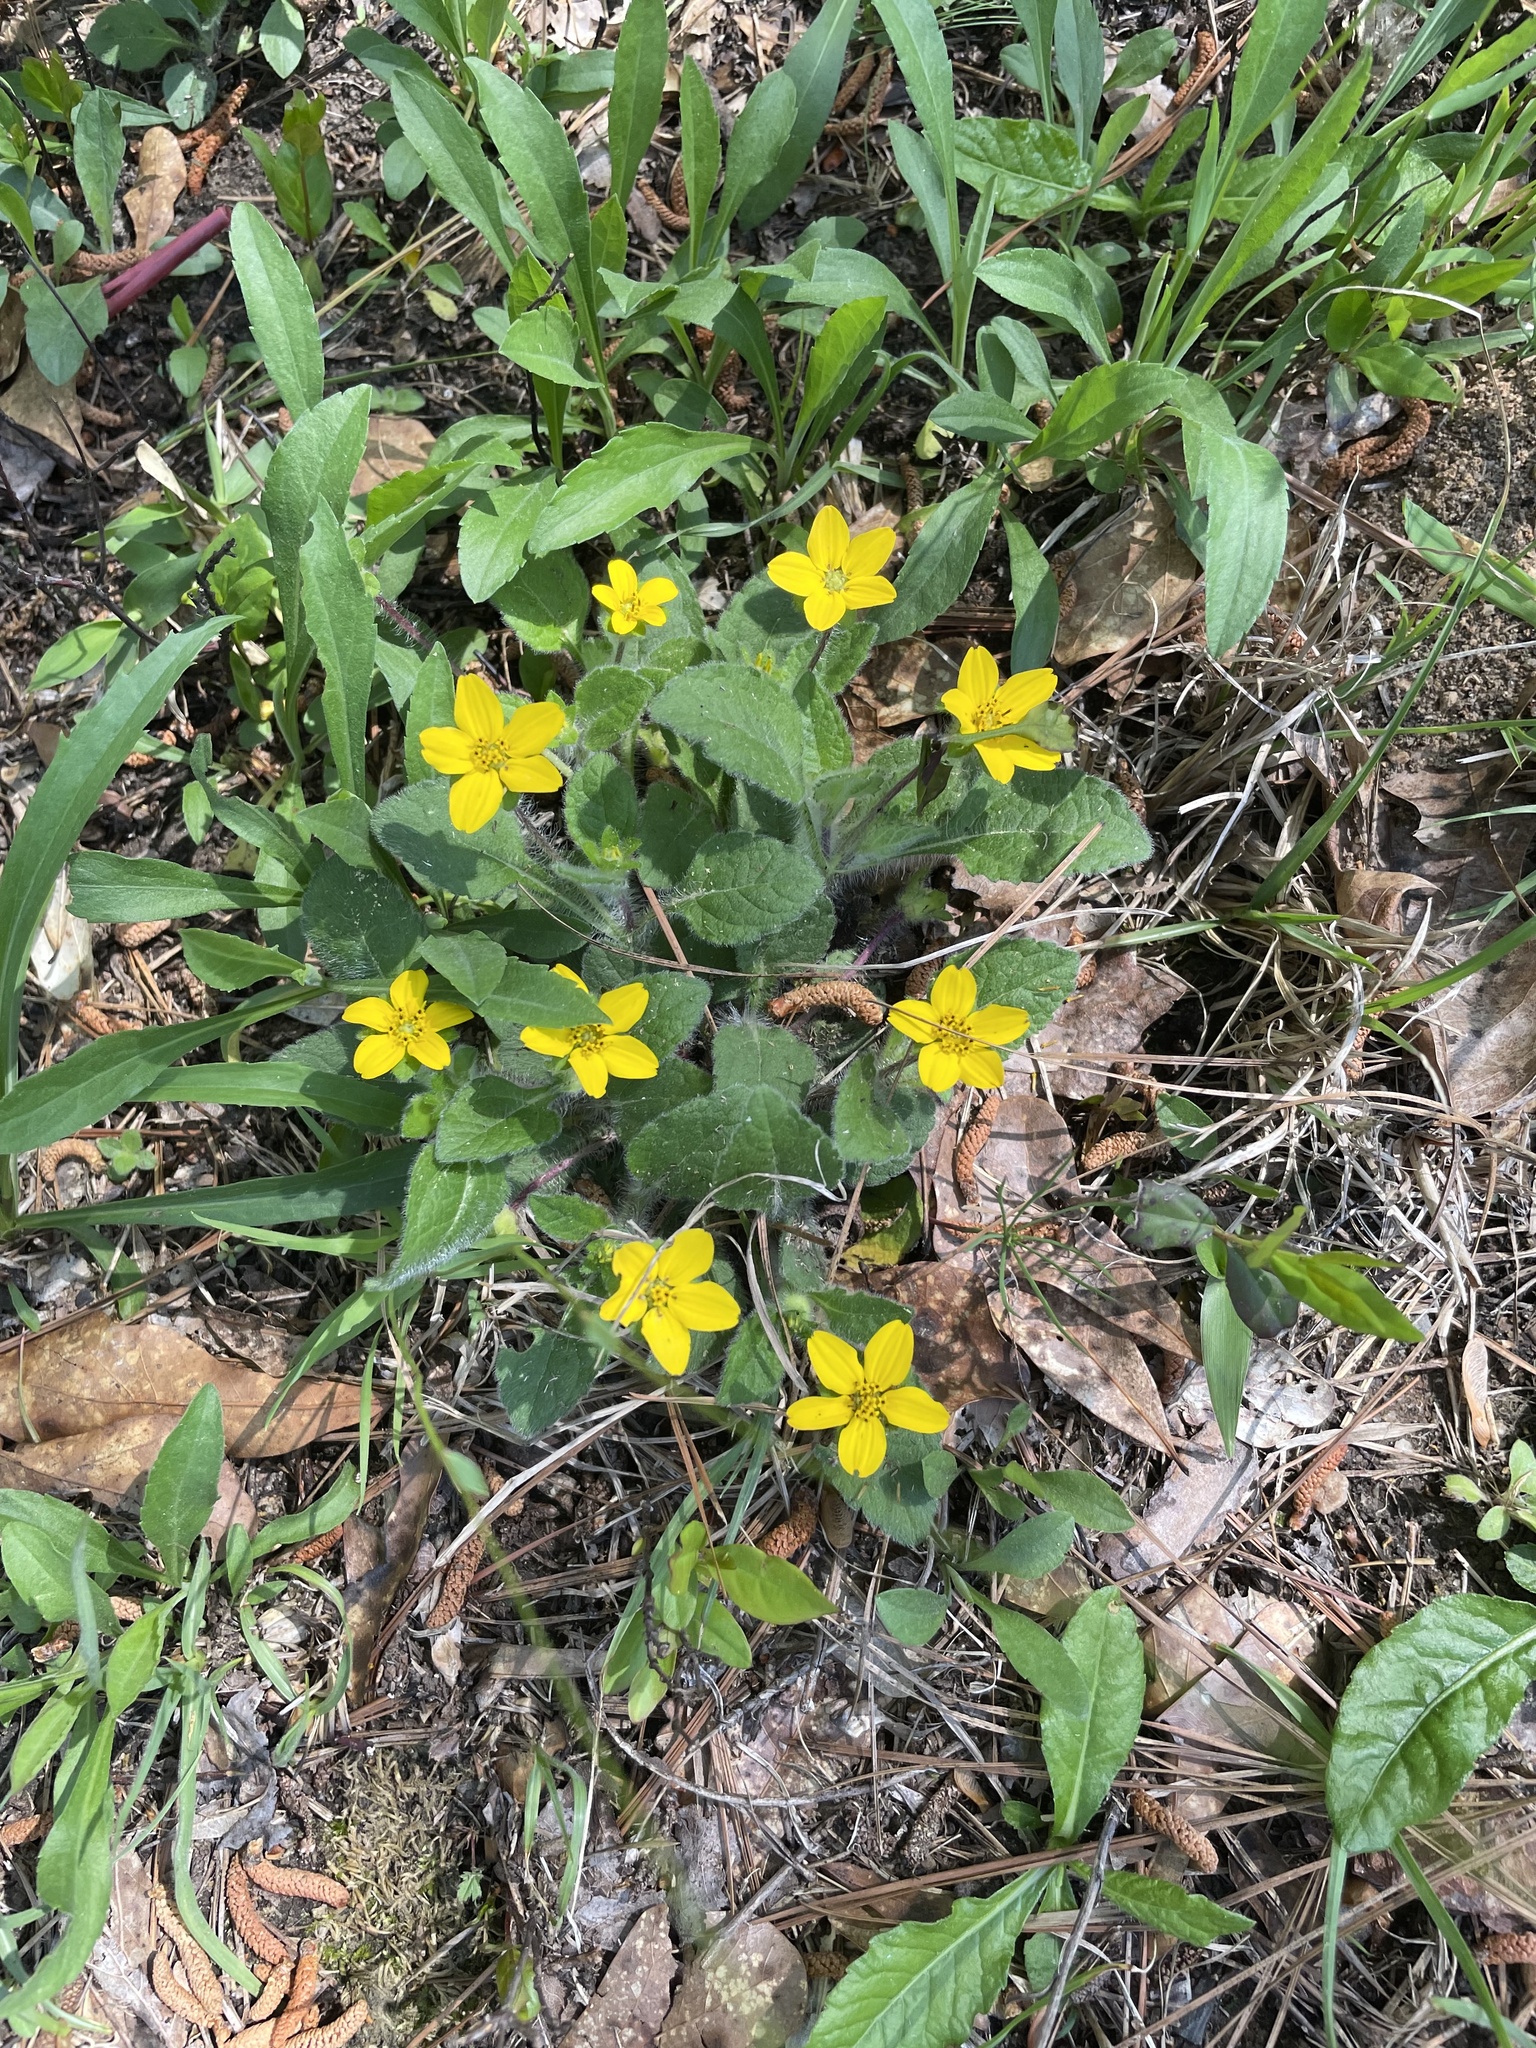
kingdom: Plantae
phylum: Tracheophyta
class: Magnoliopsida
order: Asterales
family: Asteraceae
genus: Chrysogonum
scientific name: Chrysogonum virginianum
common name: Golden-knee
